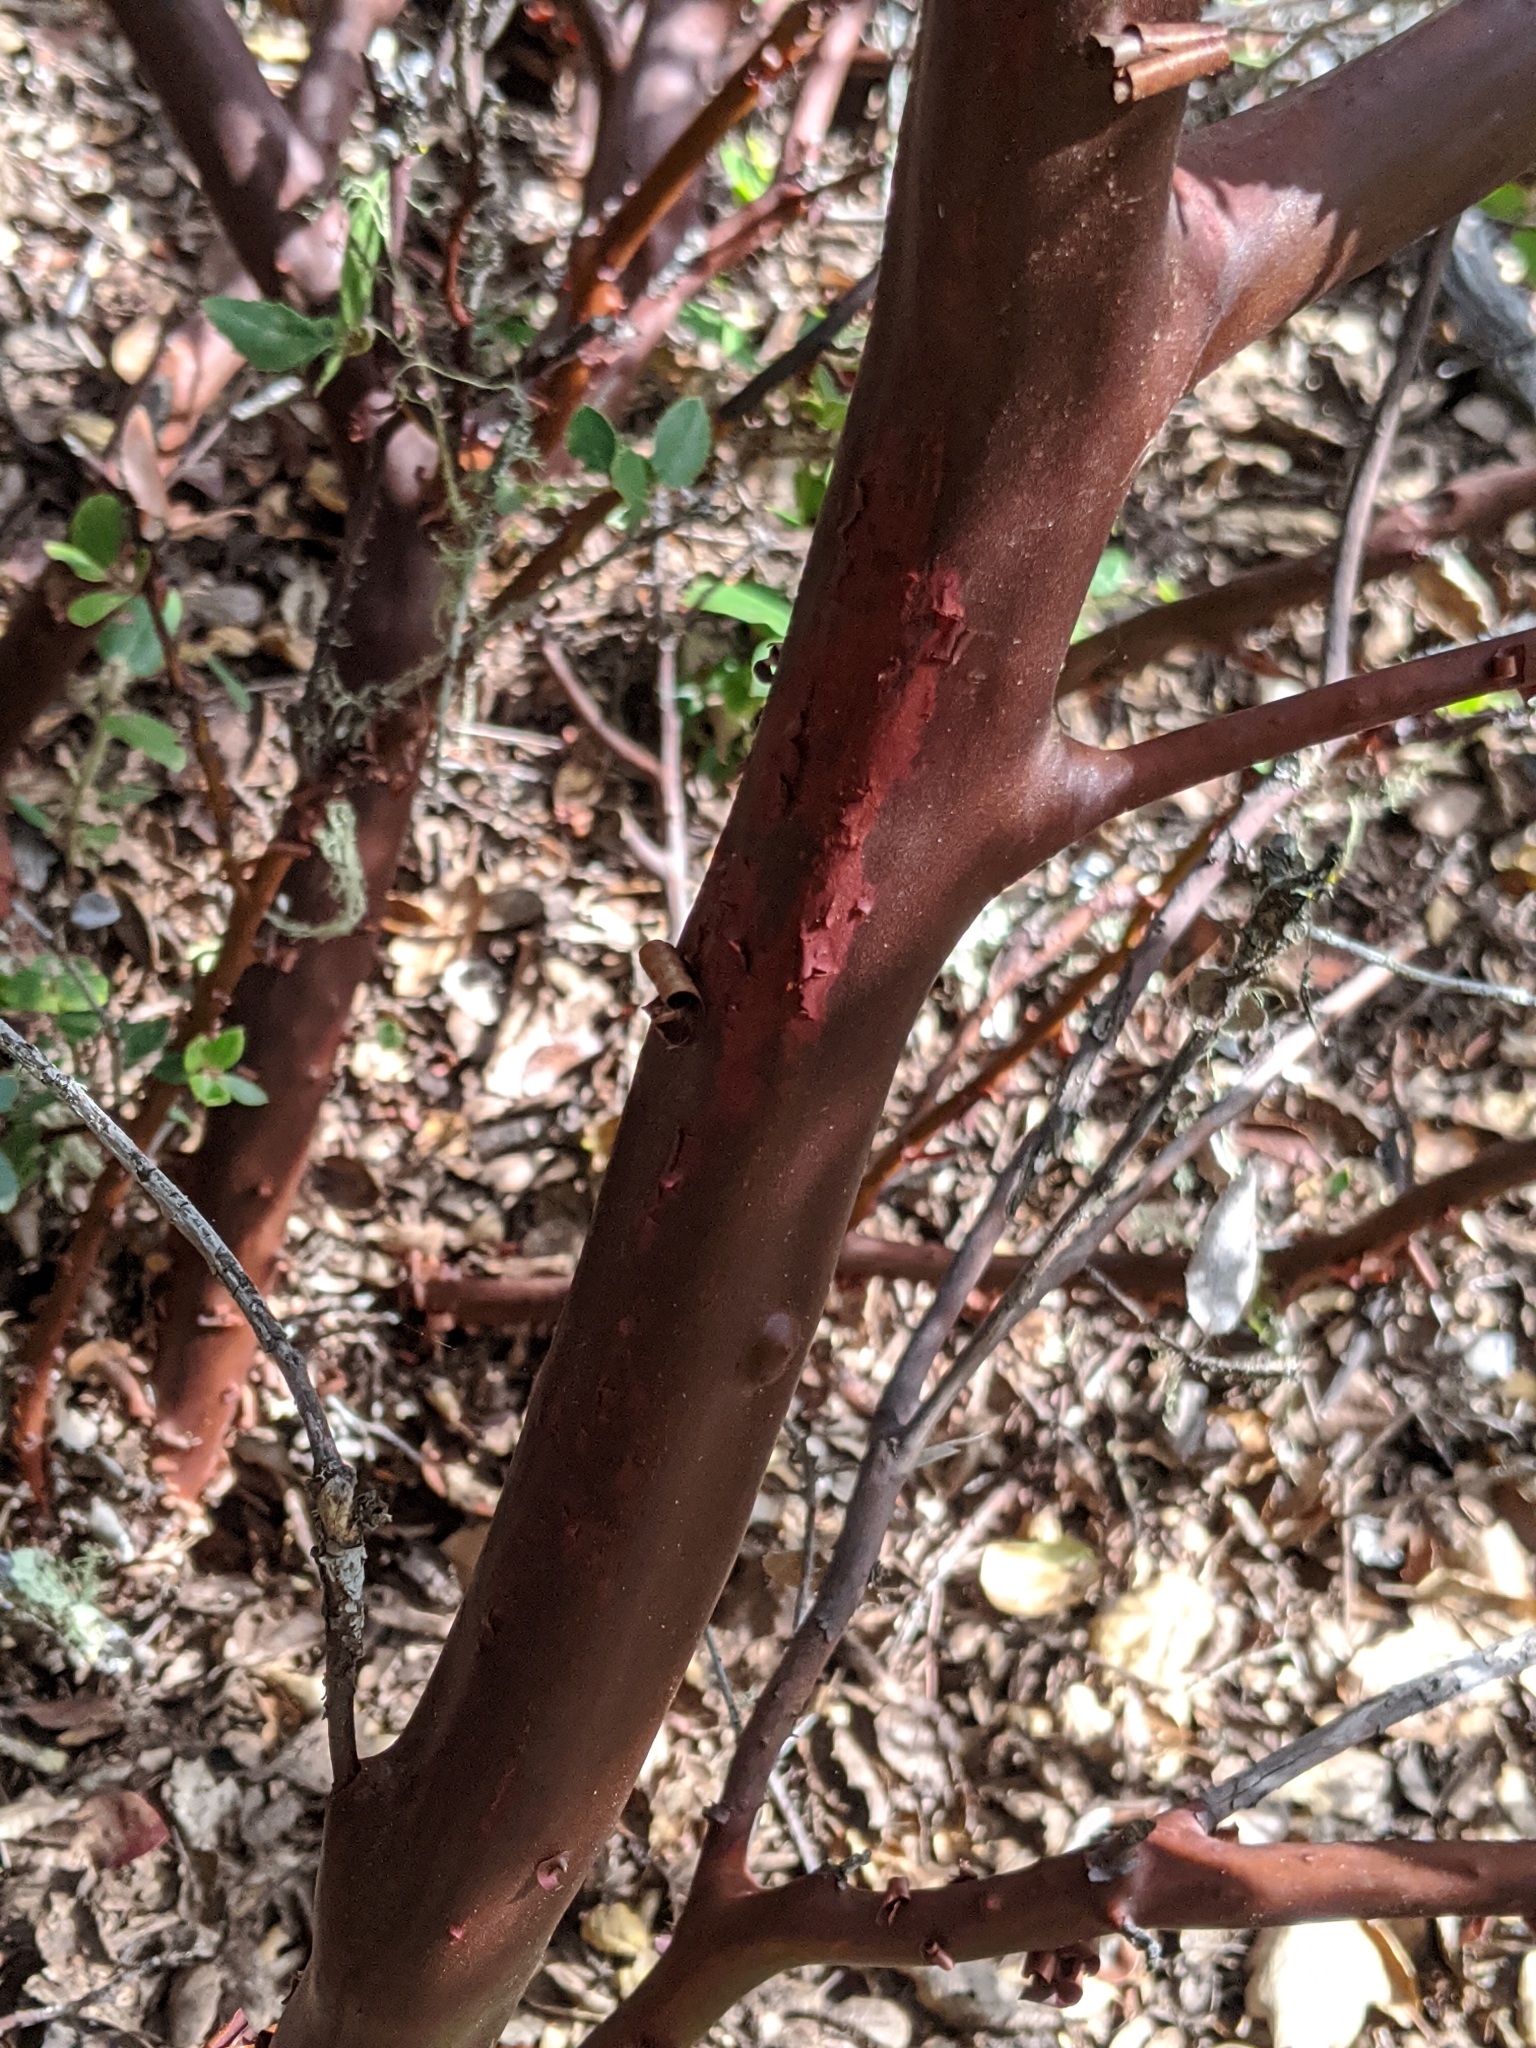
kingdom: Plantae
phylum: Tracheophyta
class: Magnoliopsida
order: Ericales
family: Ericaceae
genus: Arctostaphylos
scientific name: Arctostaphylos crustacea
